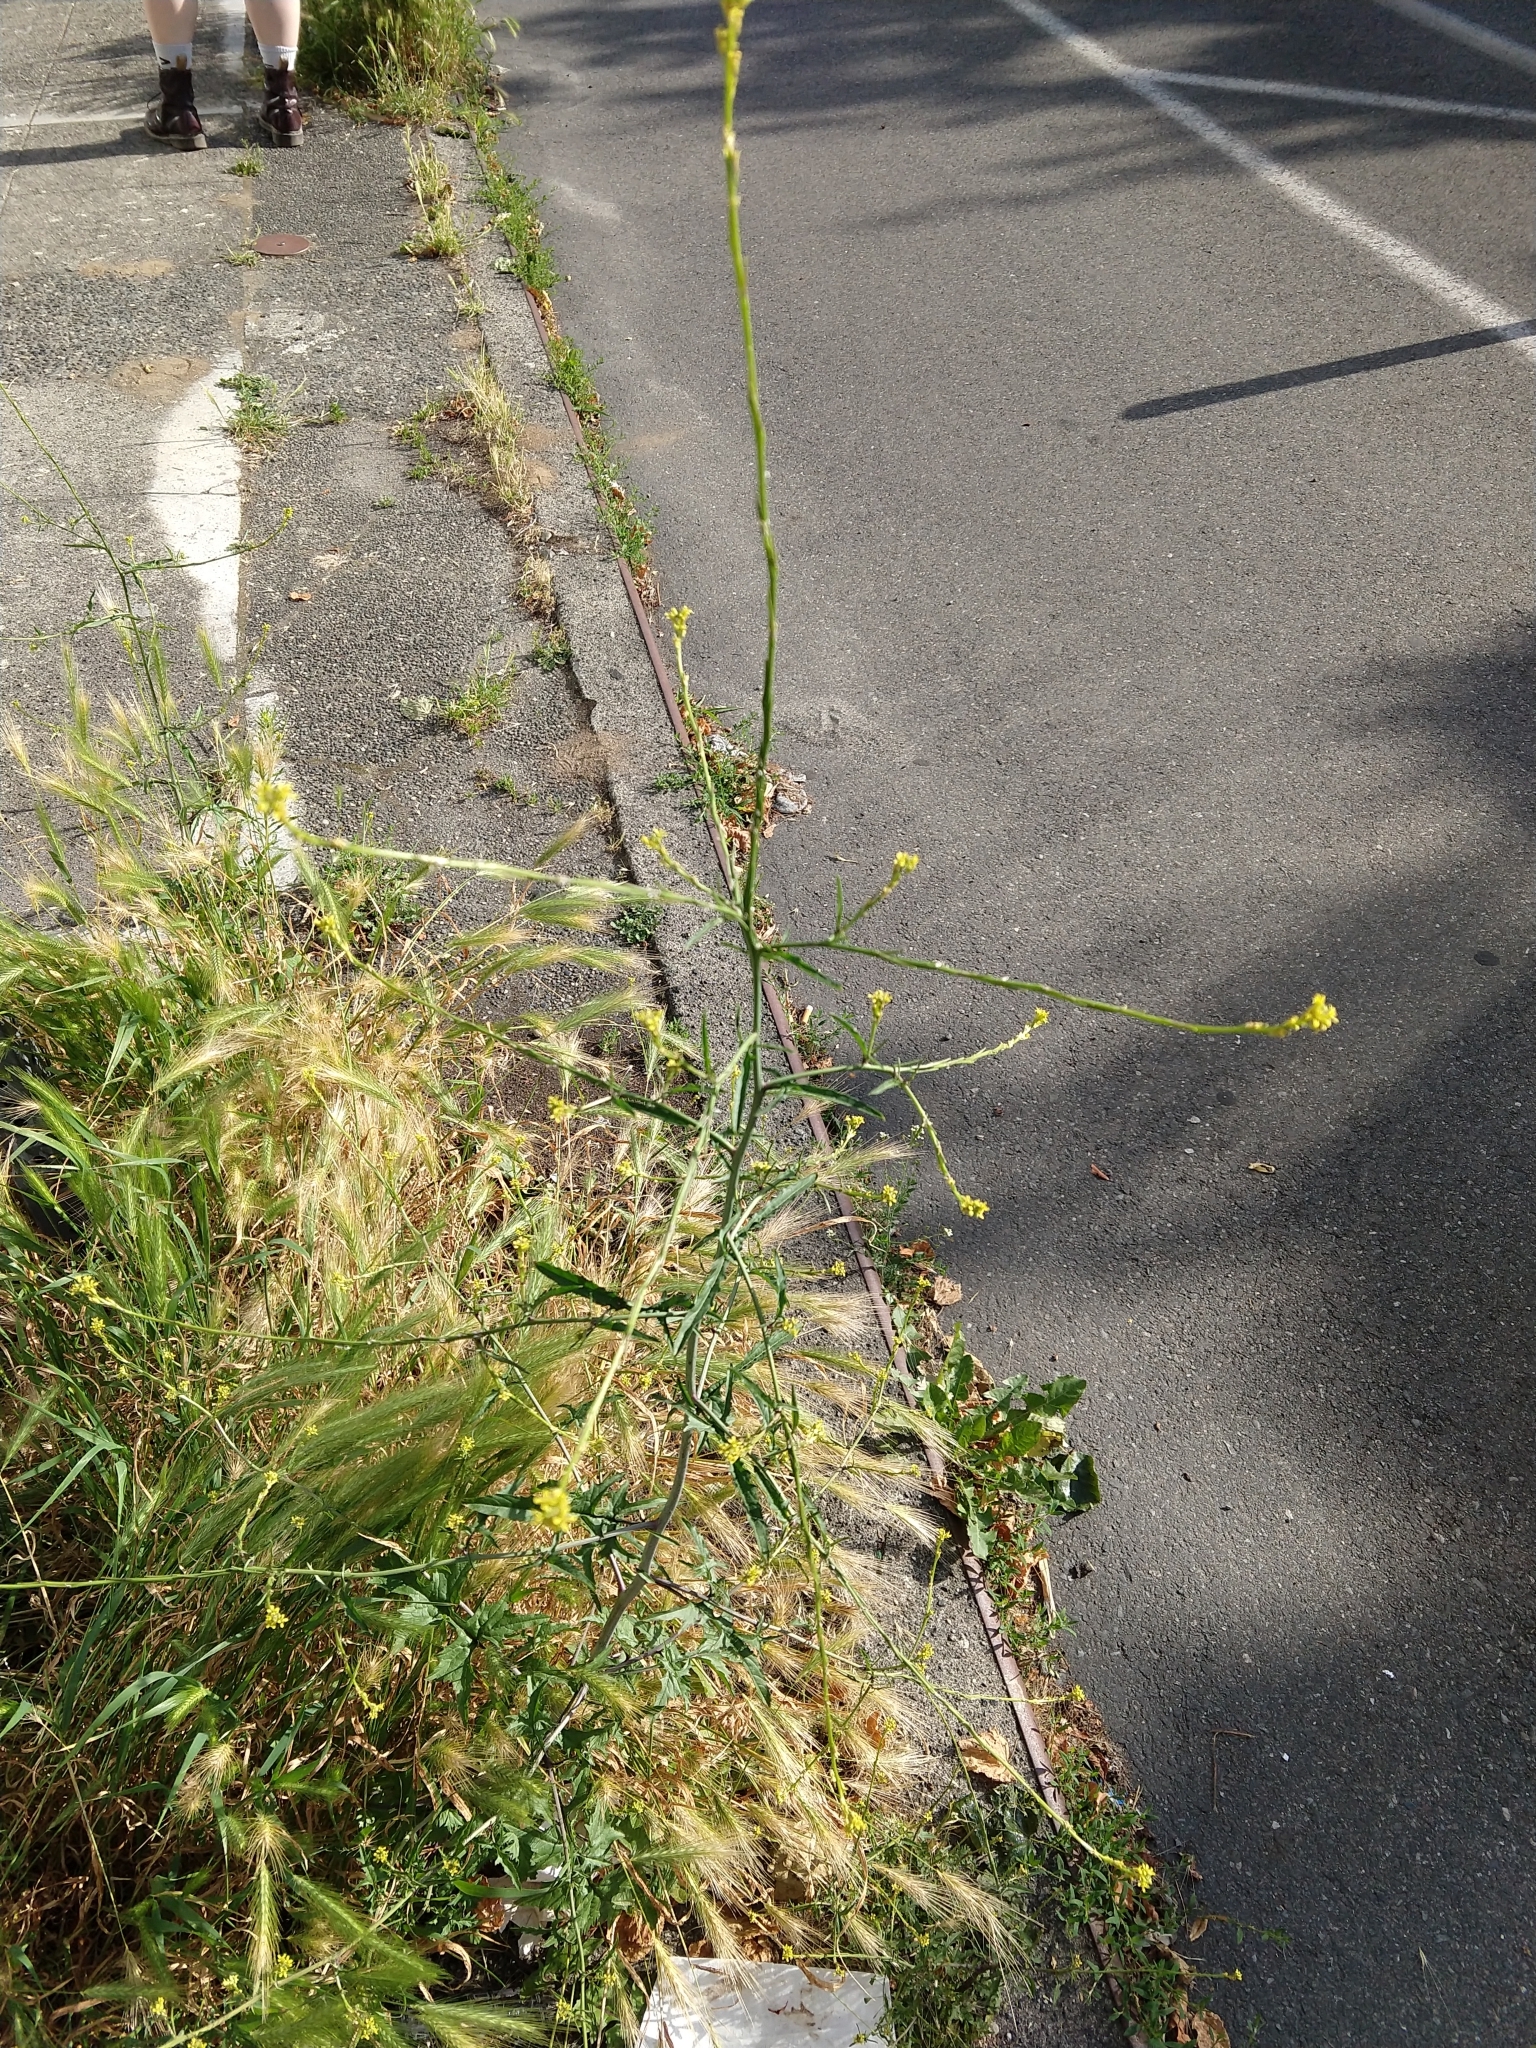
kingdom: Plantae
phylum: Tracheophyta
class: Magnoliopsida
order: Brassicales
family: Brassicaceae
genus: Sisymbrium
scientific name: Sisymbrium officinale
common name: Hedge mustard
